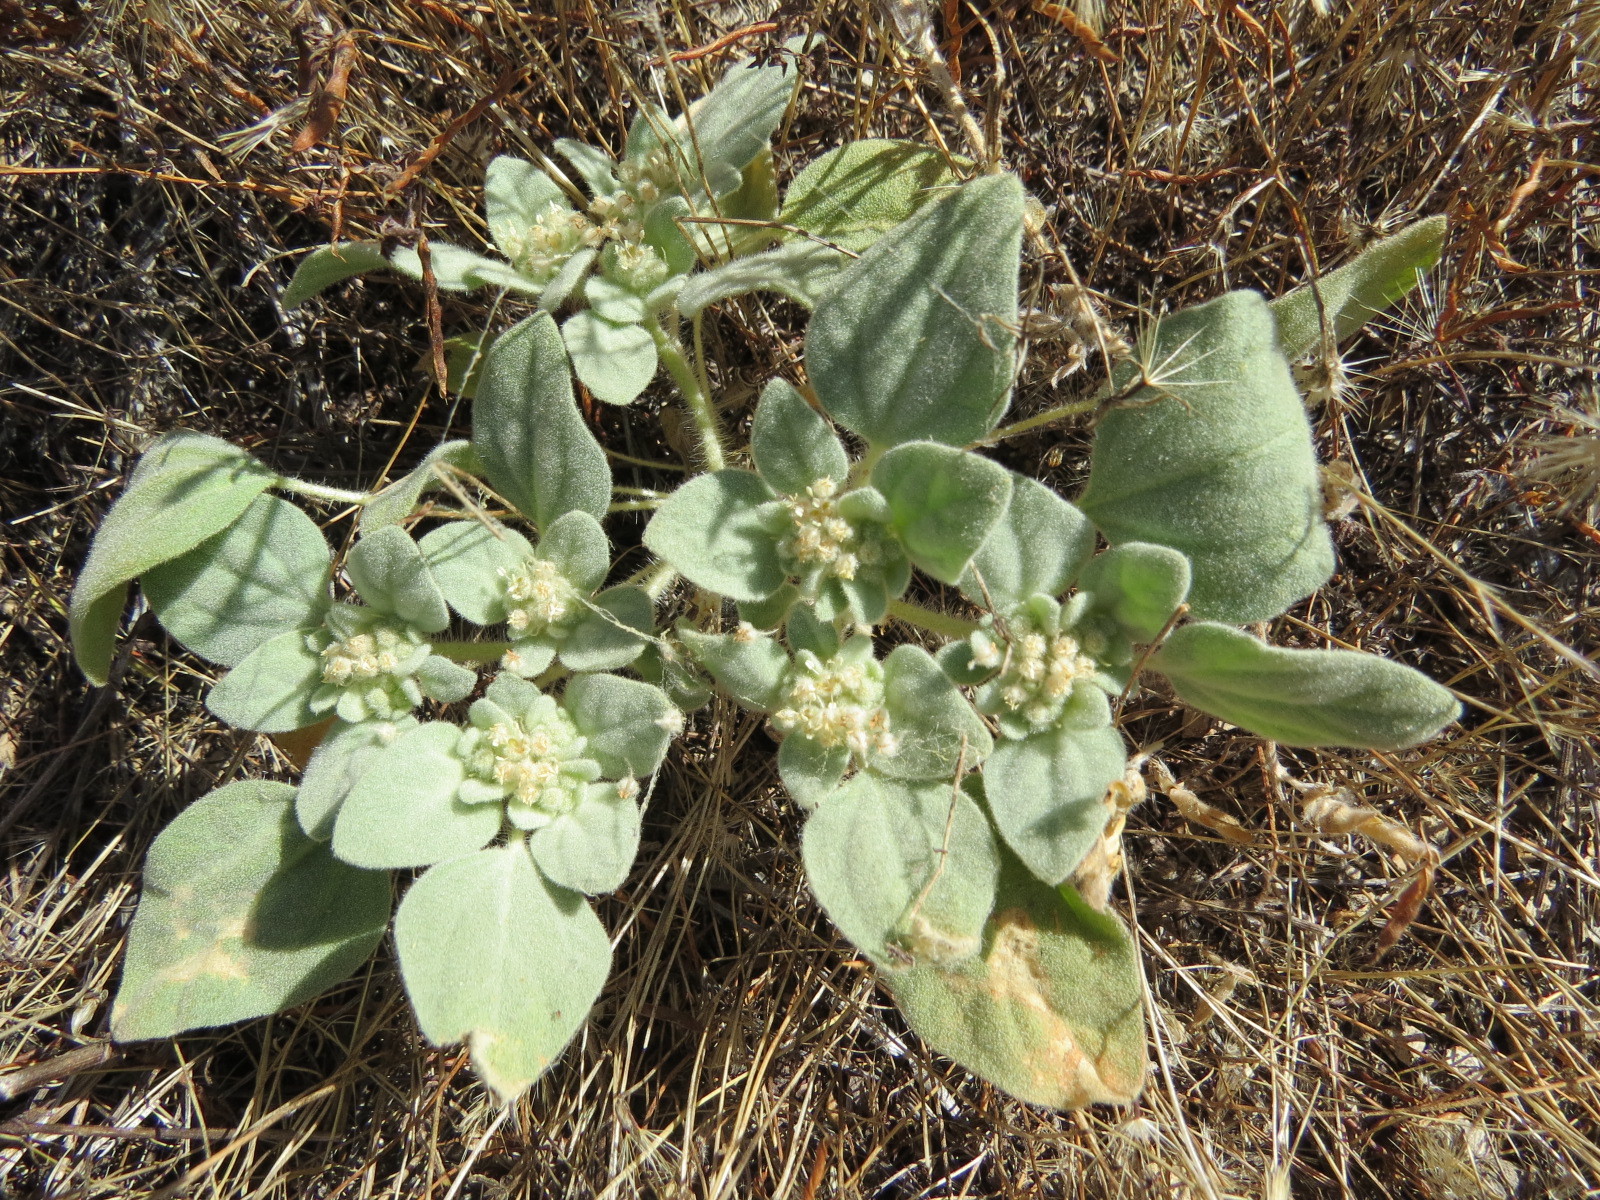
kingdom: Plantae
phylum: Tracheophyta
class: Magnoliopsida
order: Malpighiales
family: Euphorbiaceae
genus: Croton
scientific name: Croton setiger
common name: Dove weed
